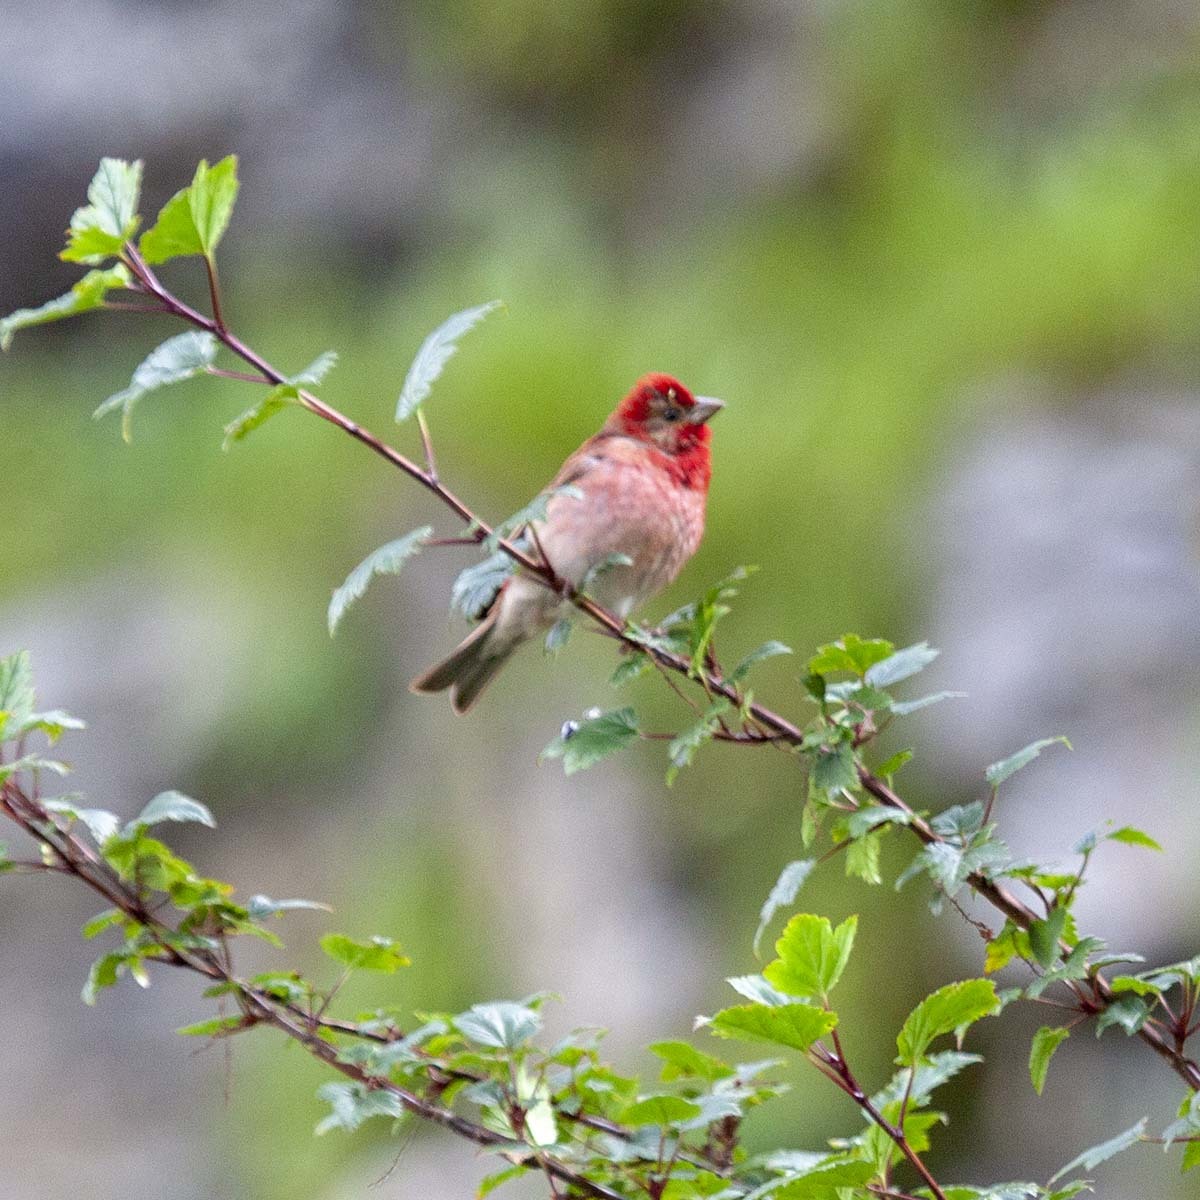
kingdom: Animalia
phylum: Chordata
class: Aves
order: Passeriformes
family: Fringillidae
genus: Carpodacus
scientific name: Carpodacus erythrinus
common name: Common rosefinch
